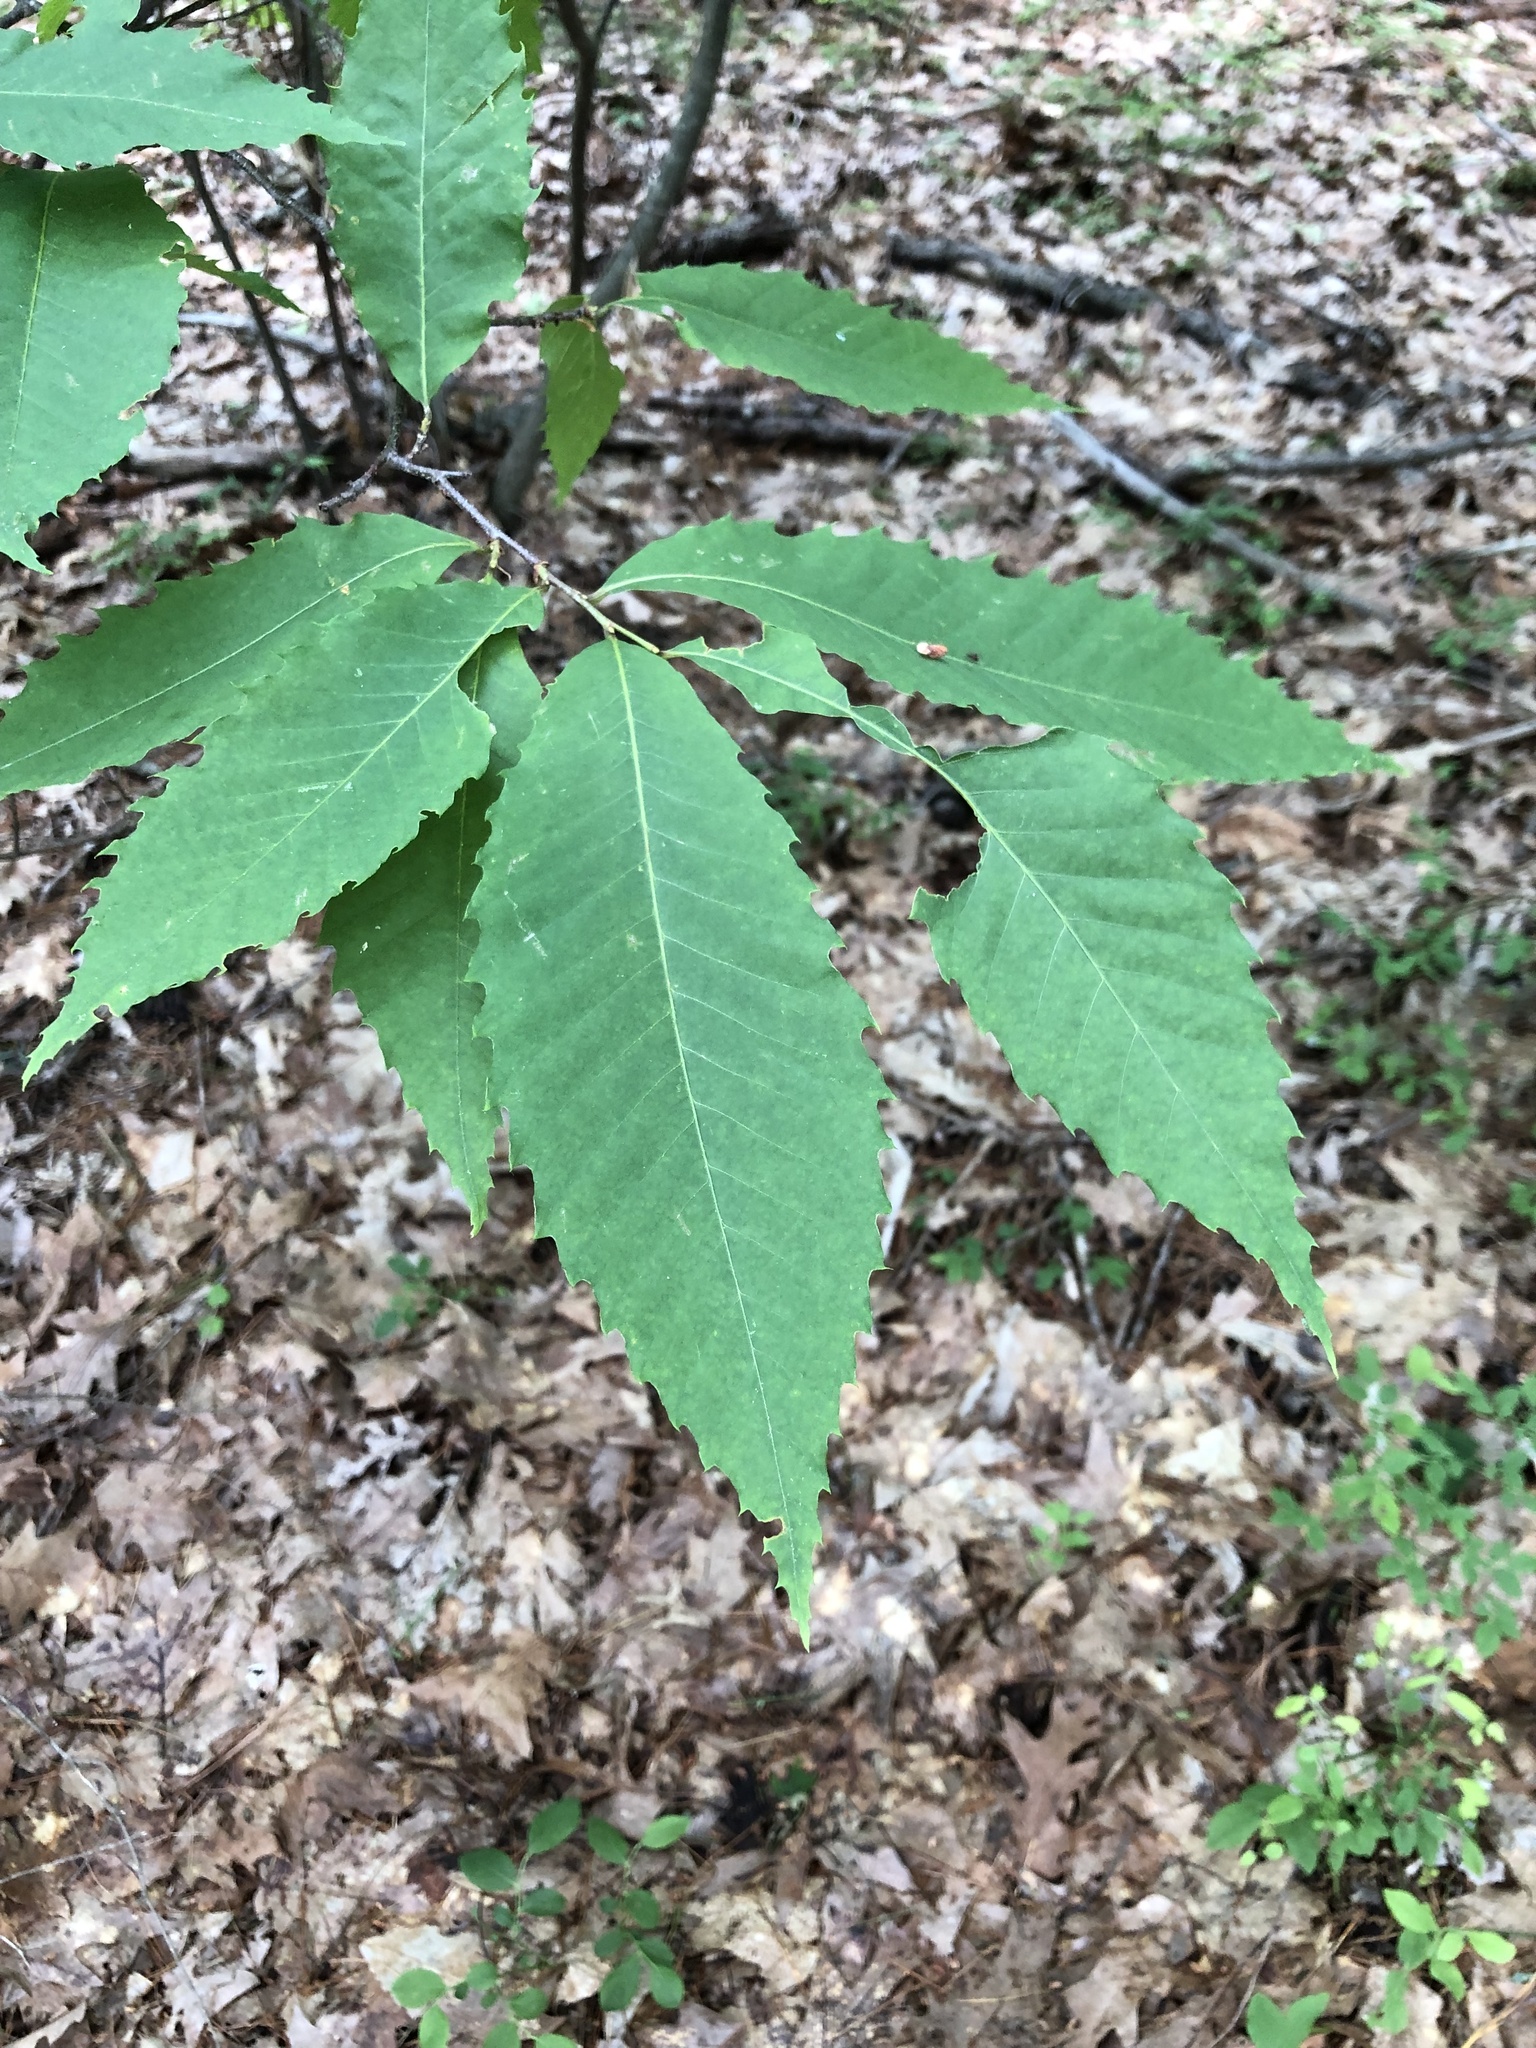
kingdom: Plantae
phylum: Tracheophyta
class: Magnoliopsida
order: Fagales
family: Fagaceae
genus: Castanea
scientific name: Castanea dentata
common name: American chestnut
